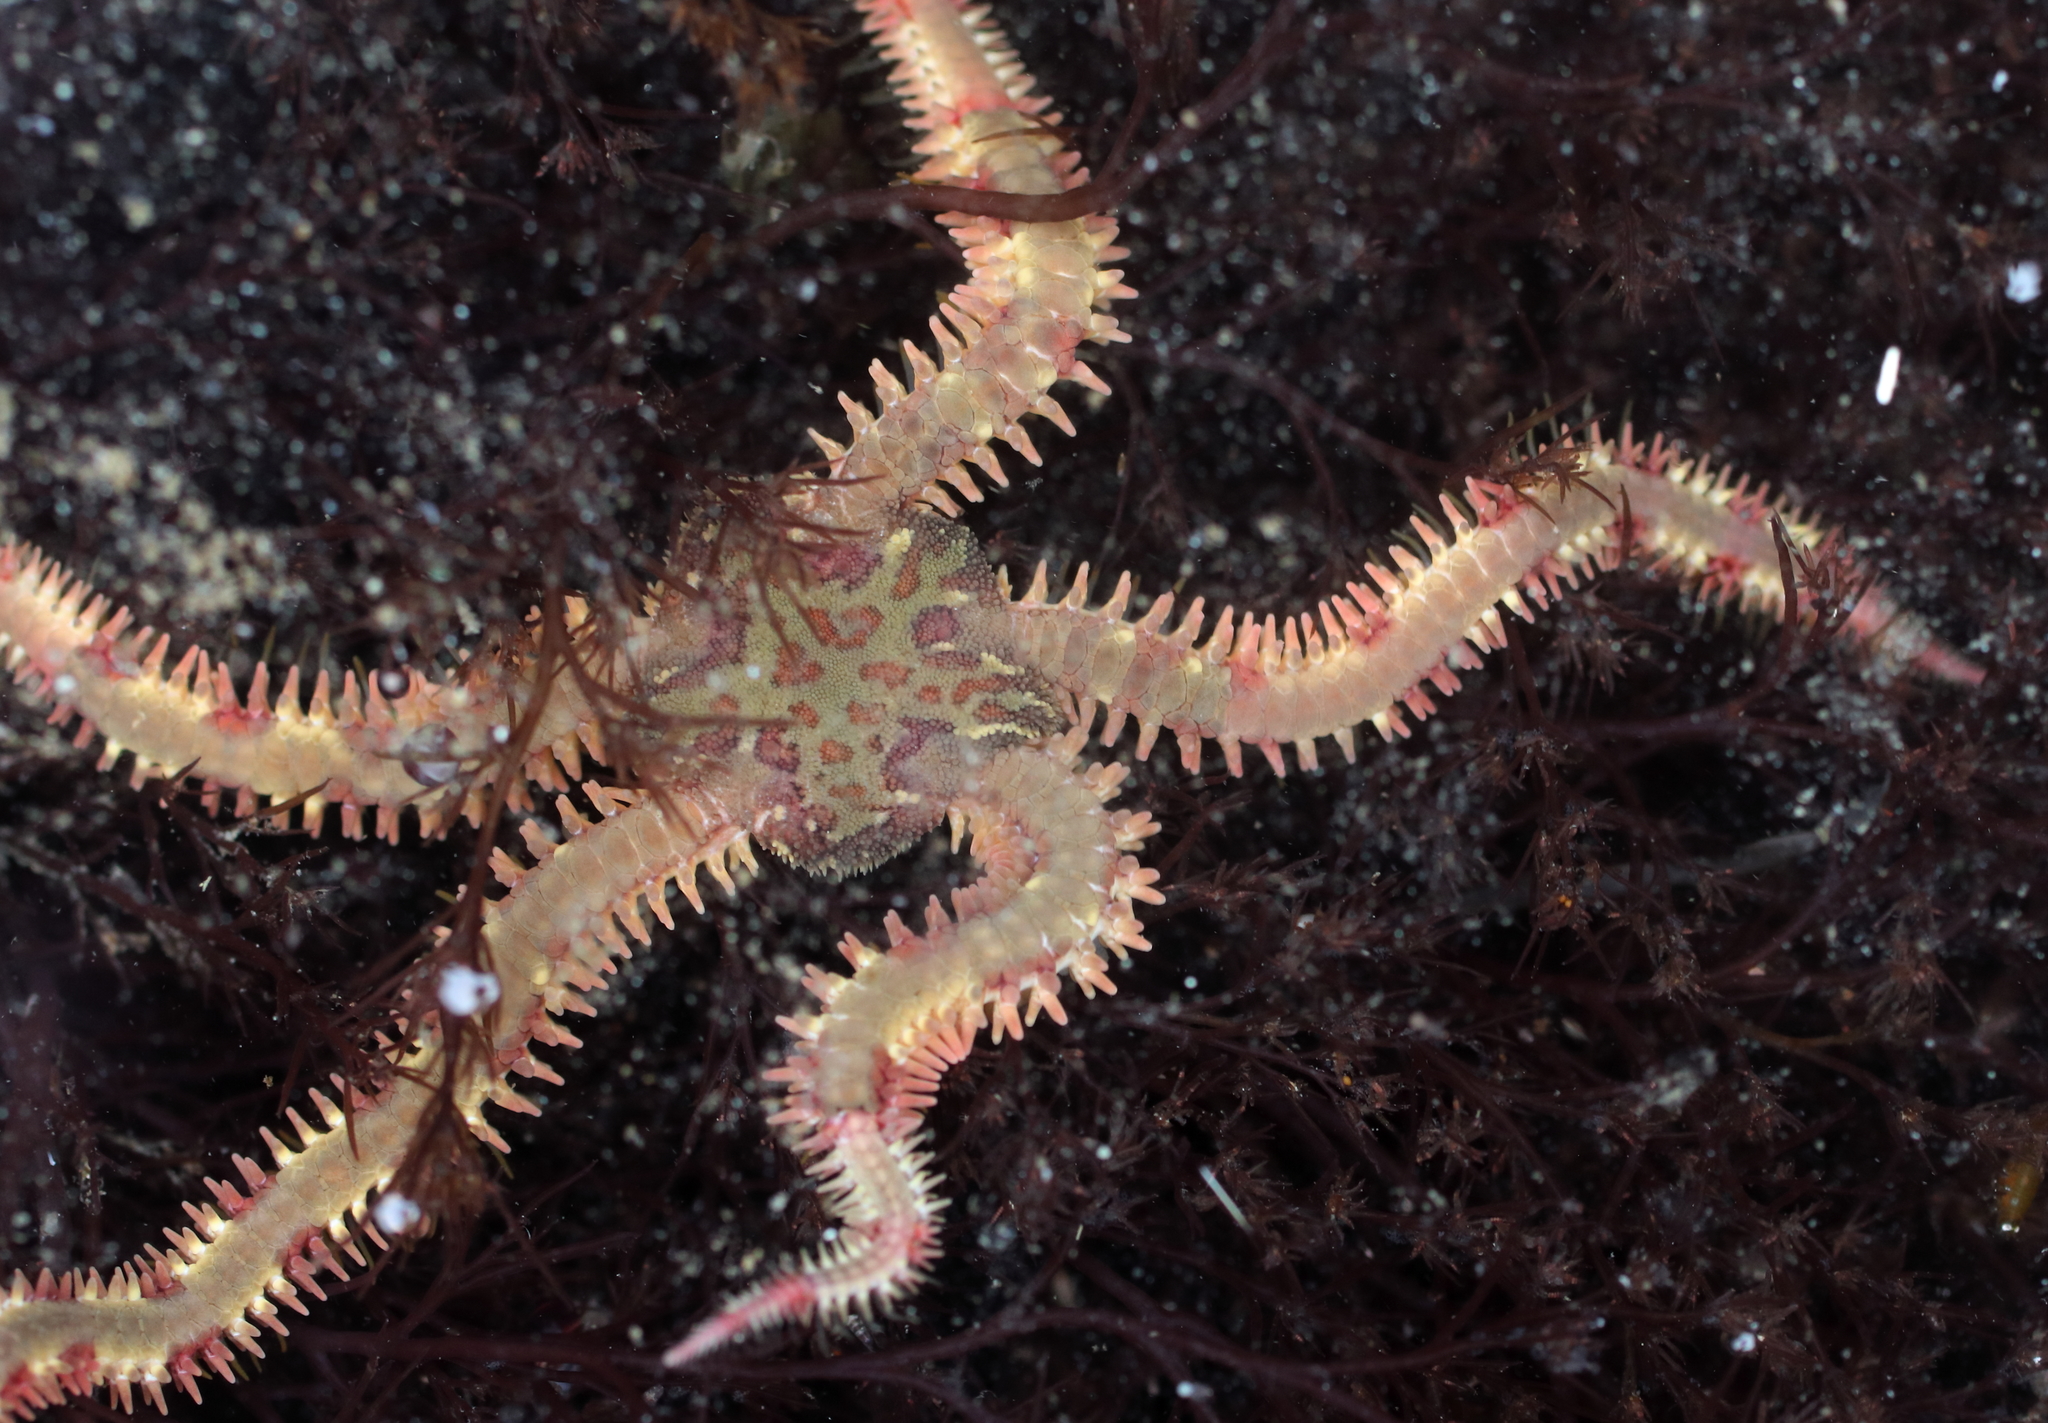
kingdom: Animalia
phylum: Echinodermata
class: Ophiuroidea
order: Amphilepidida
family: Ophiopholidae
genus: Ophiopholis
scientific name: Ophiopholis kennerlyi
